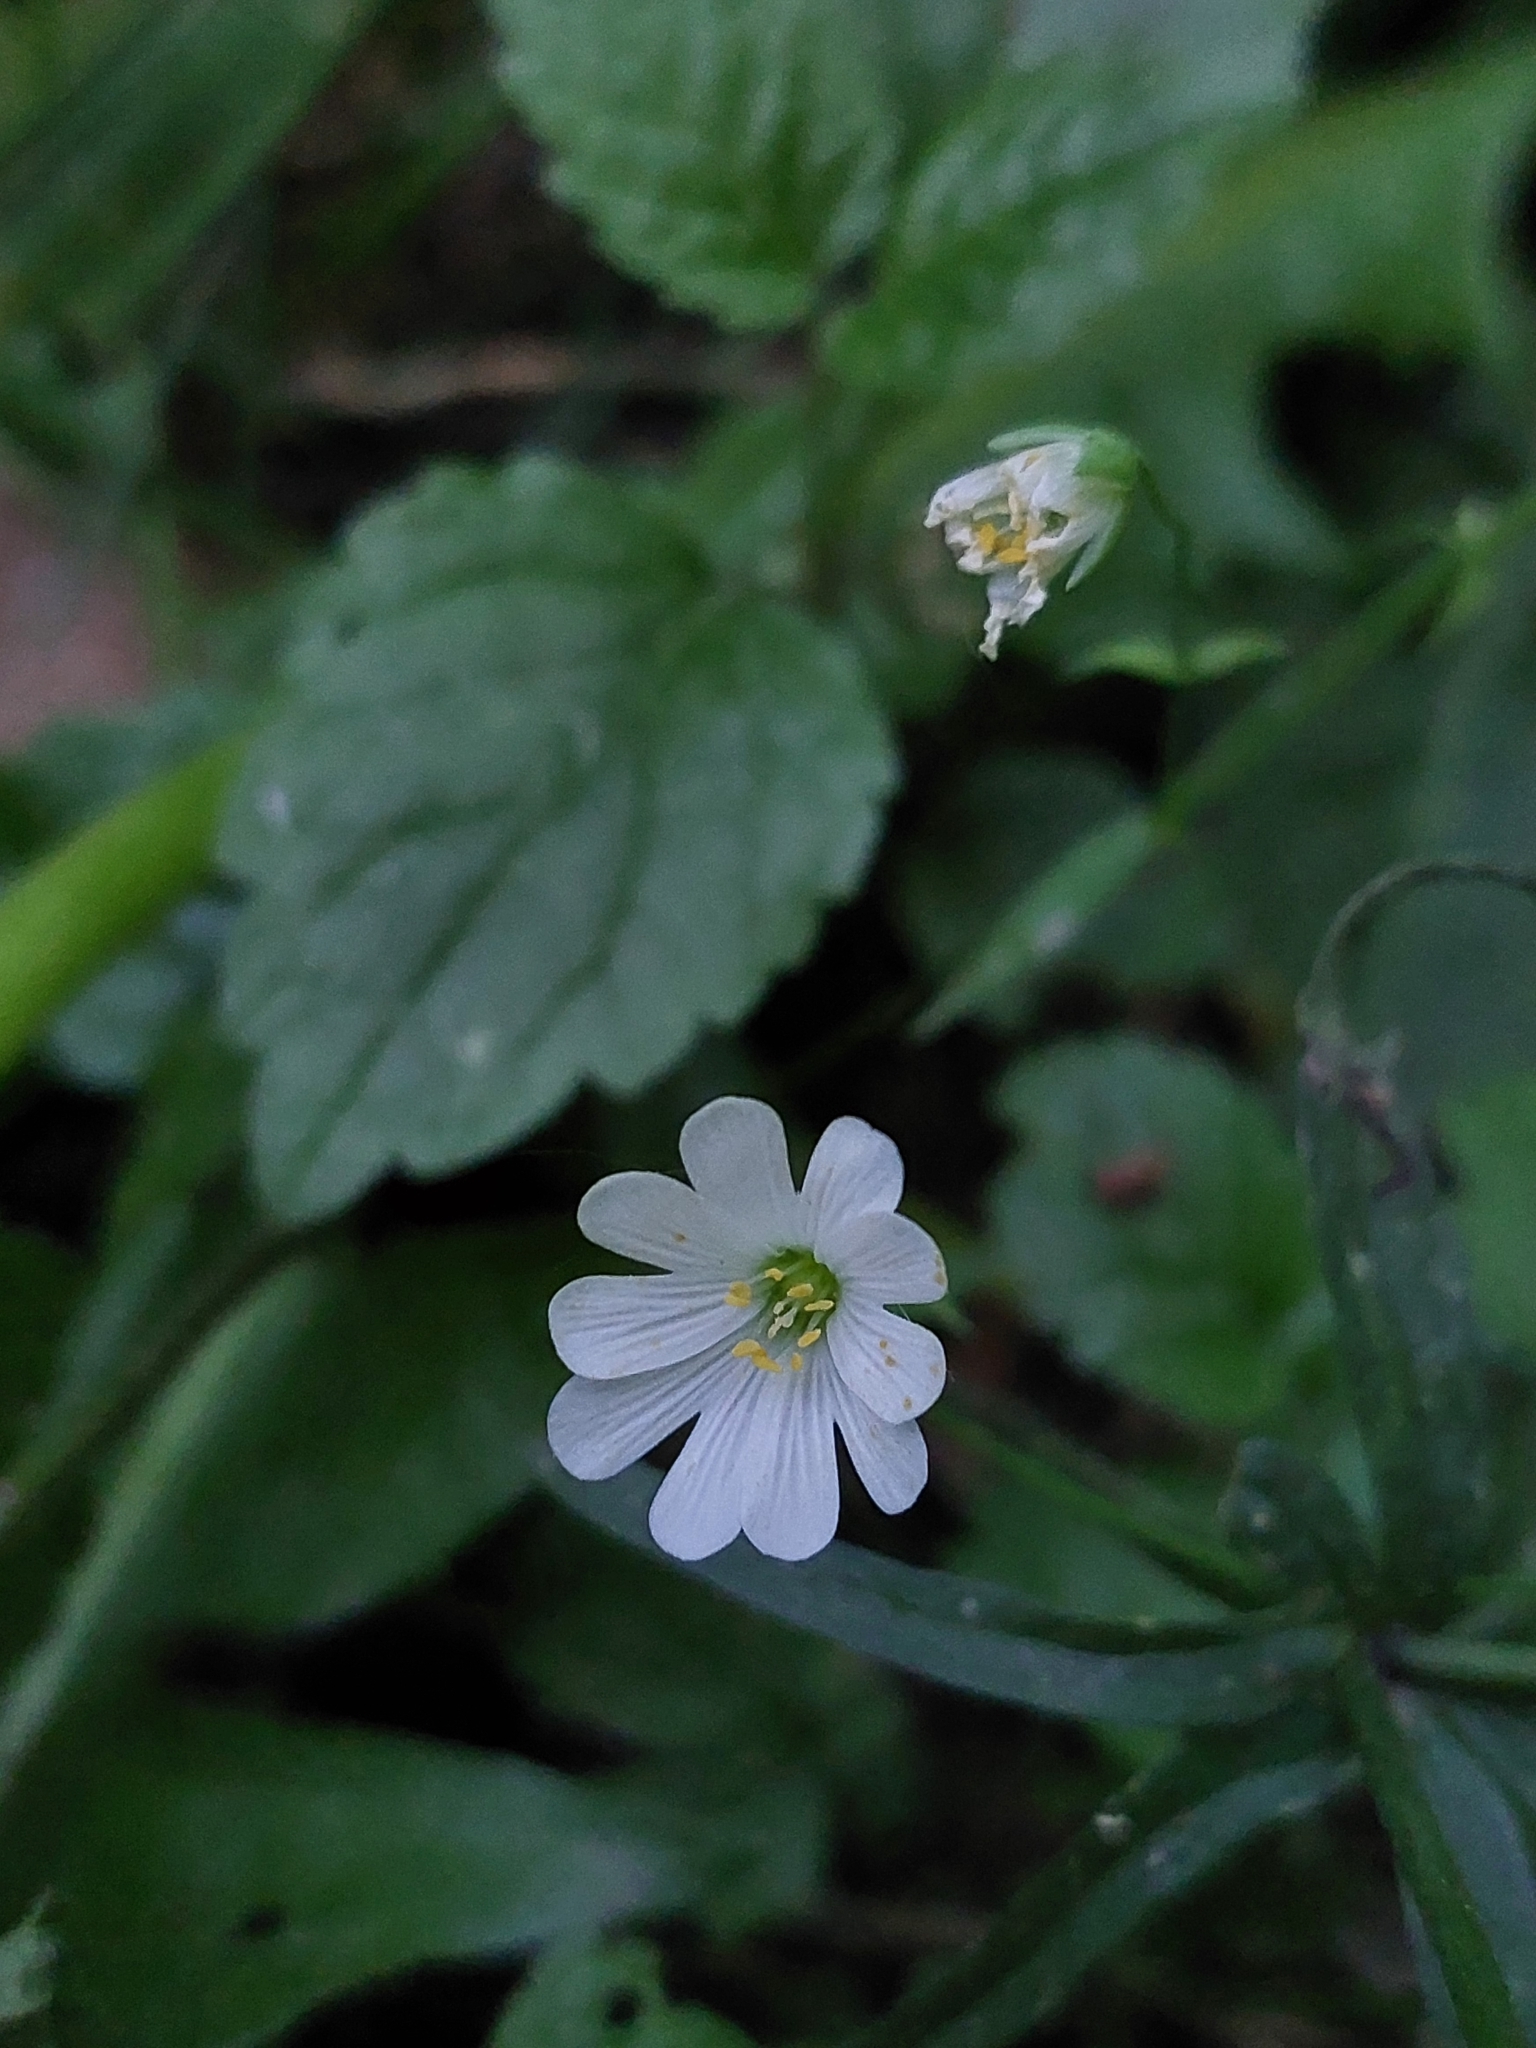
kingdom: Plantae
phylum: Tracheophyta
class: Magnoliopsida
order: Caryophyllales
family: Caryophyllaceae
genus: Rabelera
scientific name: Rabelera holostea
